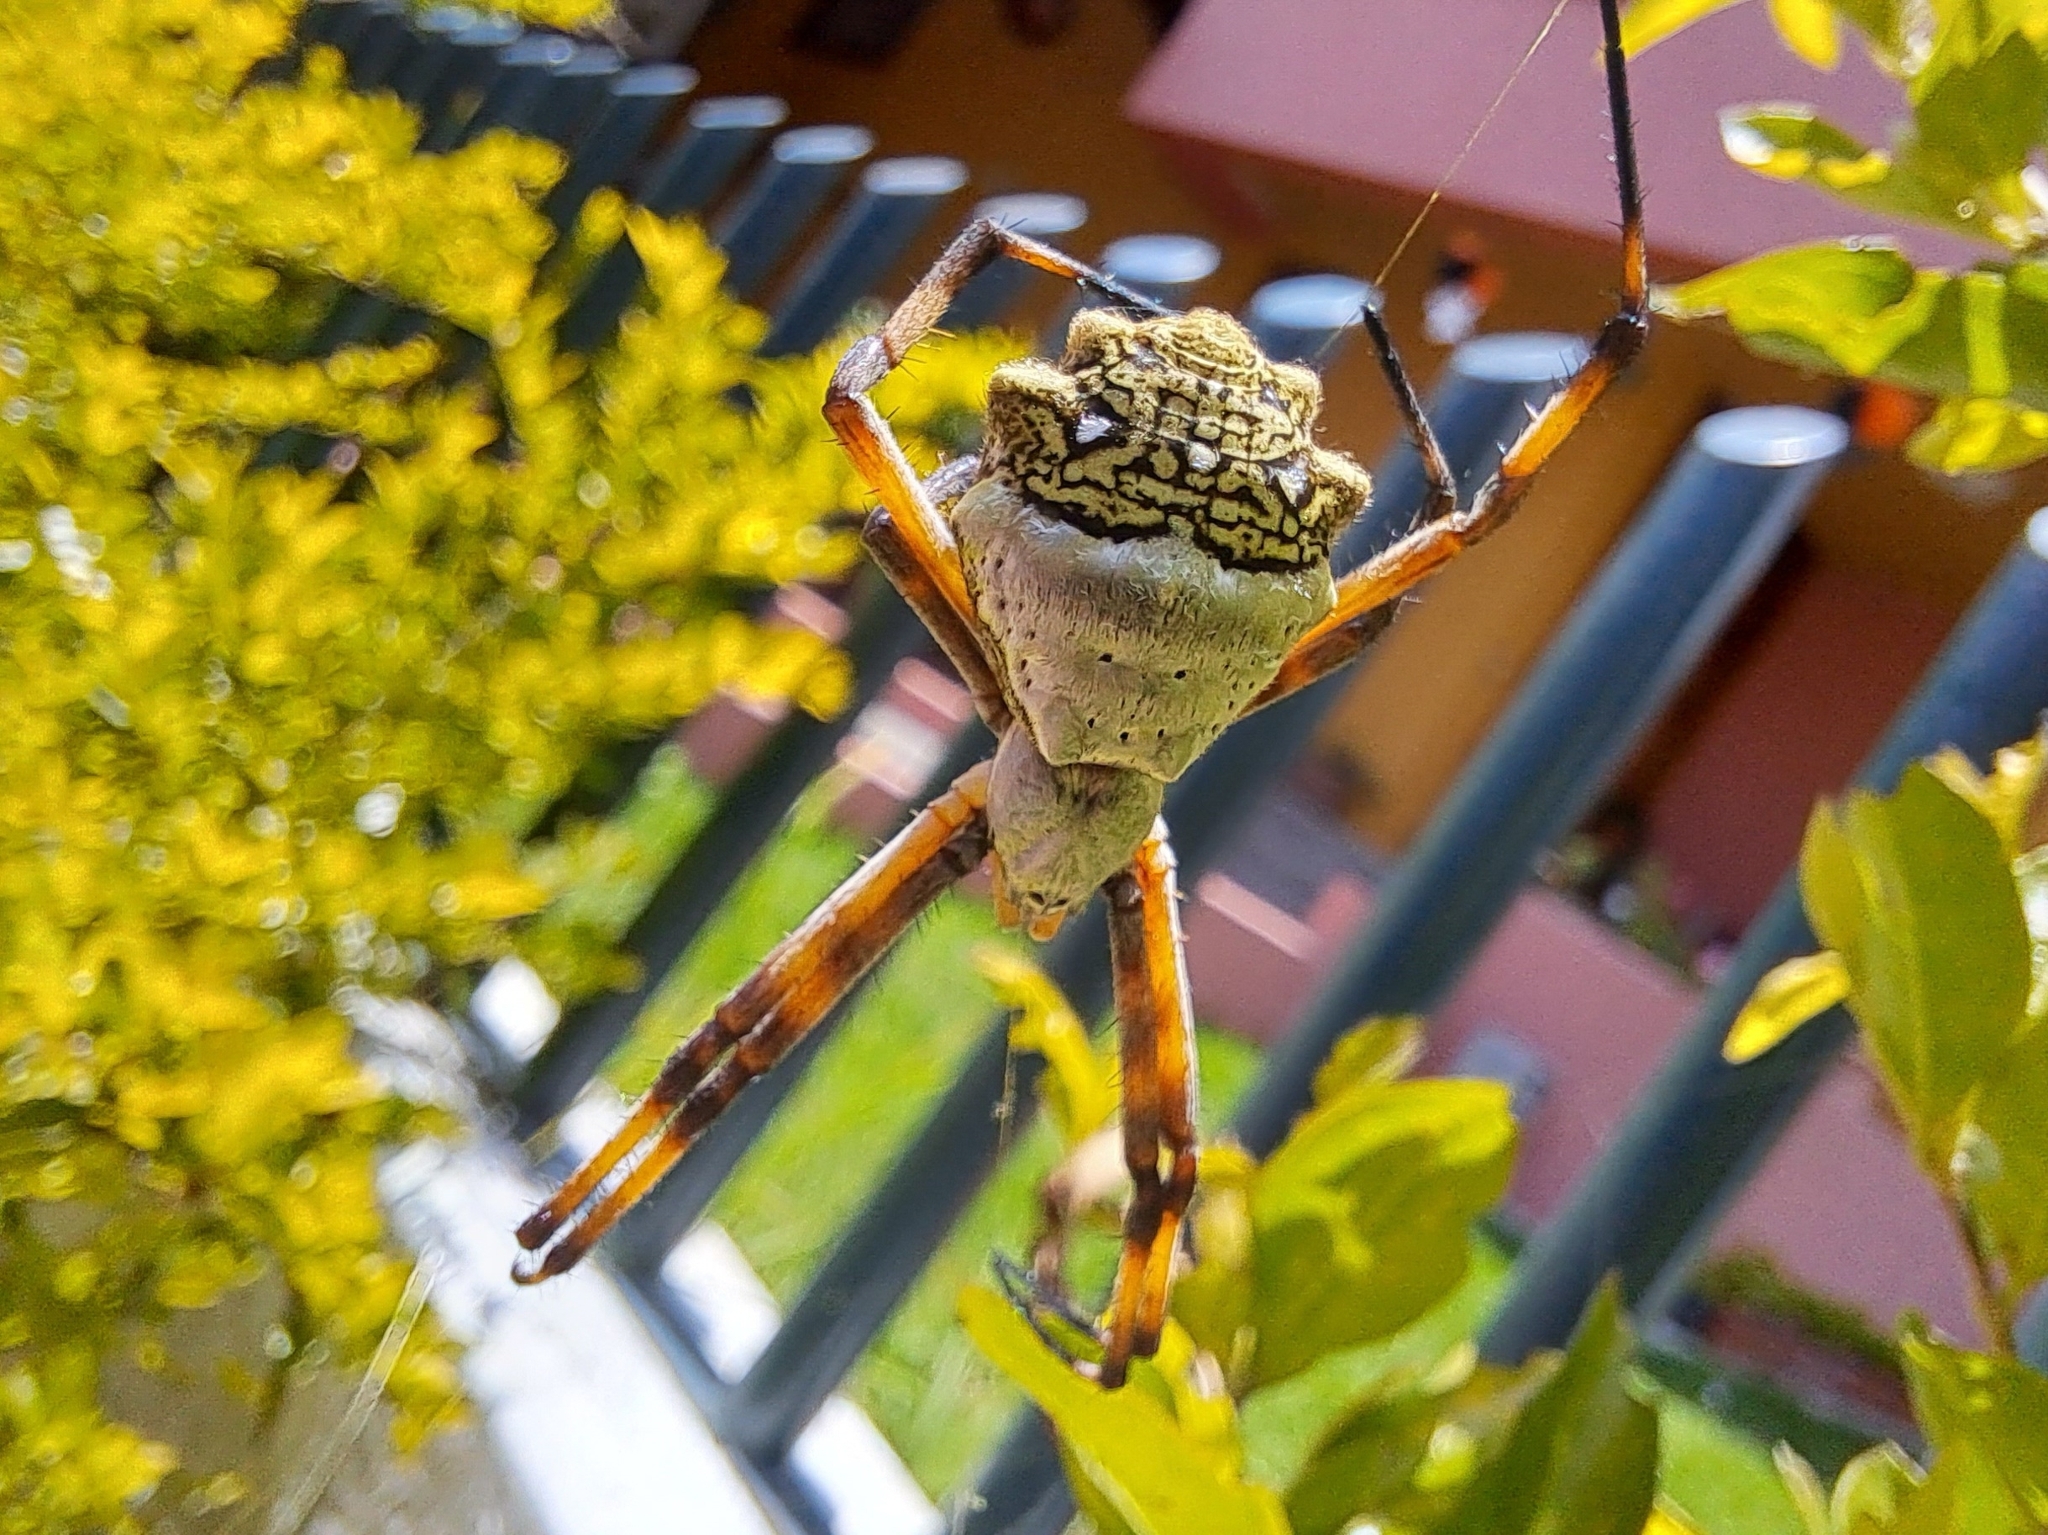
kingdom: Animalia
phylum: Arthropoda
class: Arachnida
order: Araneae
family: Araneidae
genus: Argiope
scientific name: Argiope argentata
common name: Orb weavers
